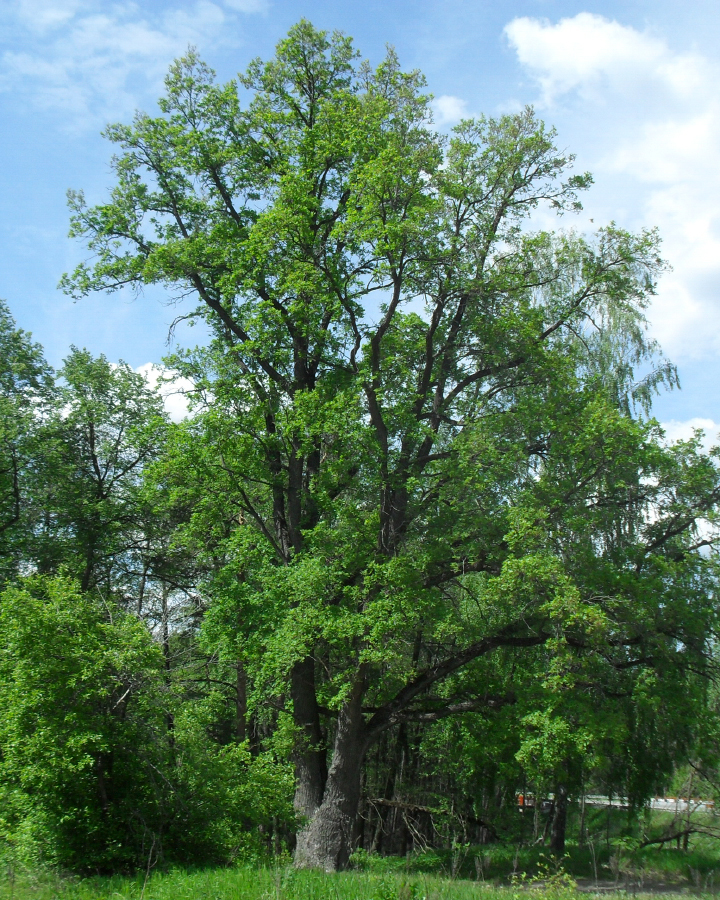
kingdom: Plantae
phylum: Tracheophyta
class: Magnoliopsida
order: Fagales
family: Fagaceae
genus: Quercus
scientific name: Quercus robur
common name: Pedunculate oak
